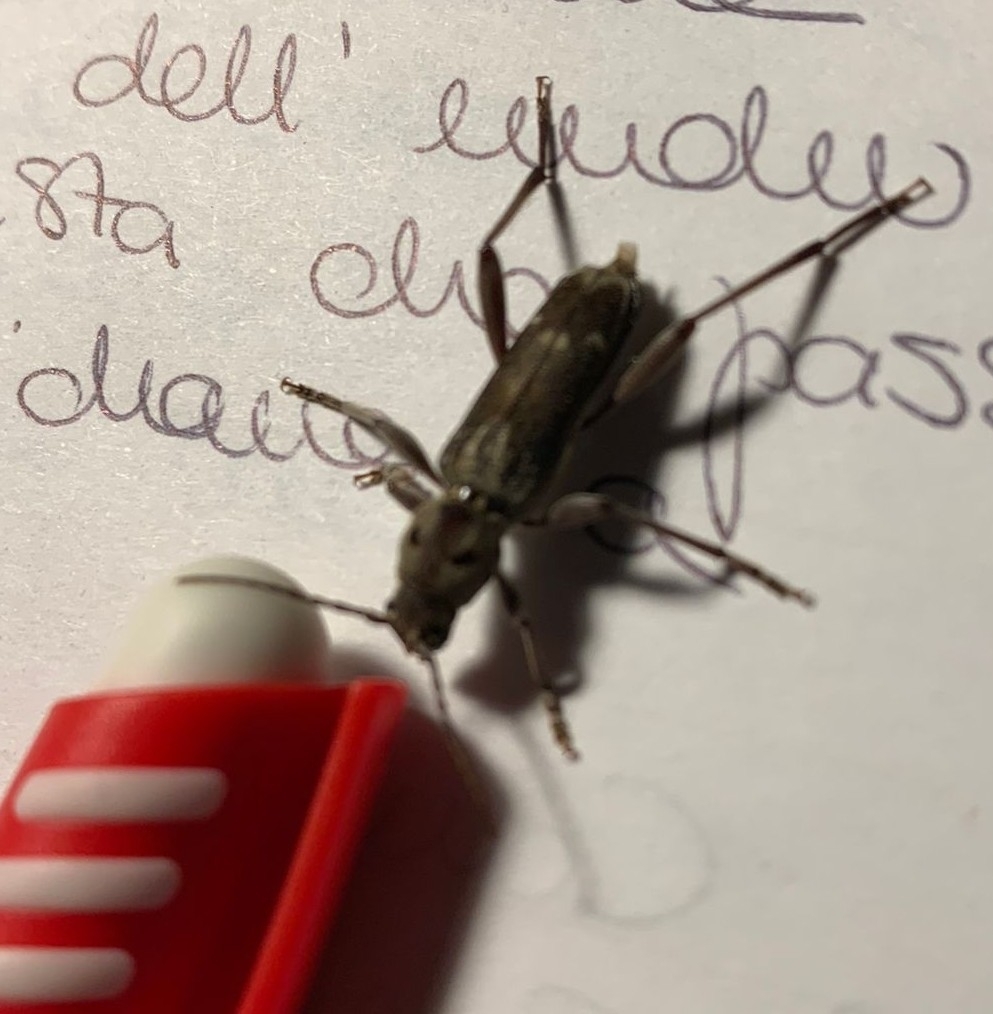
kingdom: Animalia
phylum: Arthropoda
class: Insecta
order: Coleoptera
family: Cerambycidae
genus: Xylotrechus
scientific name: Xylotrechus stebbingi
